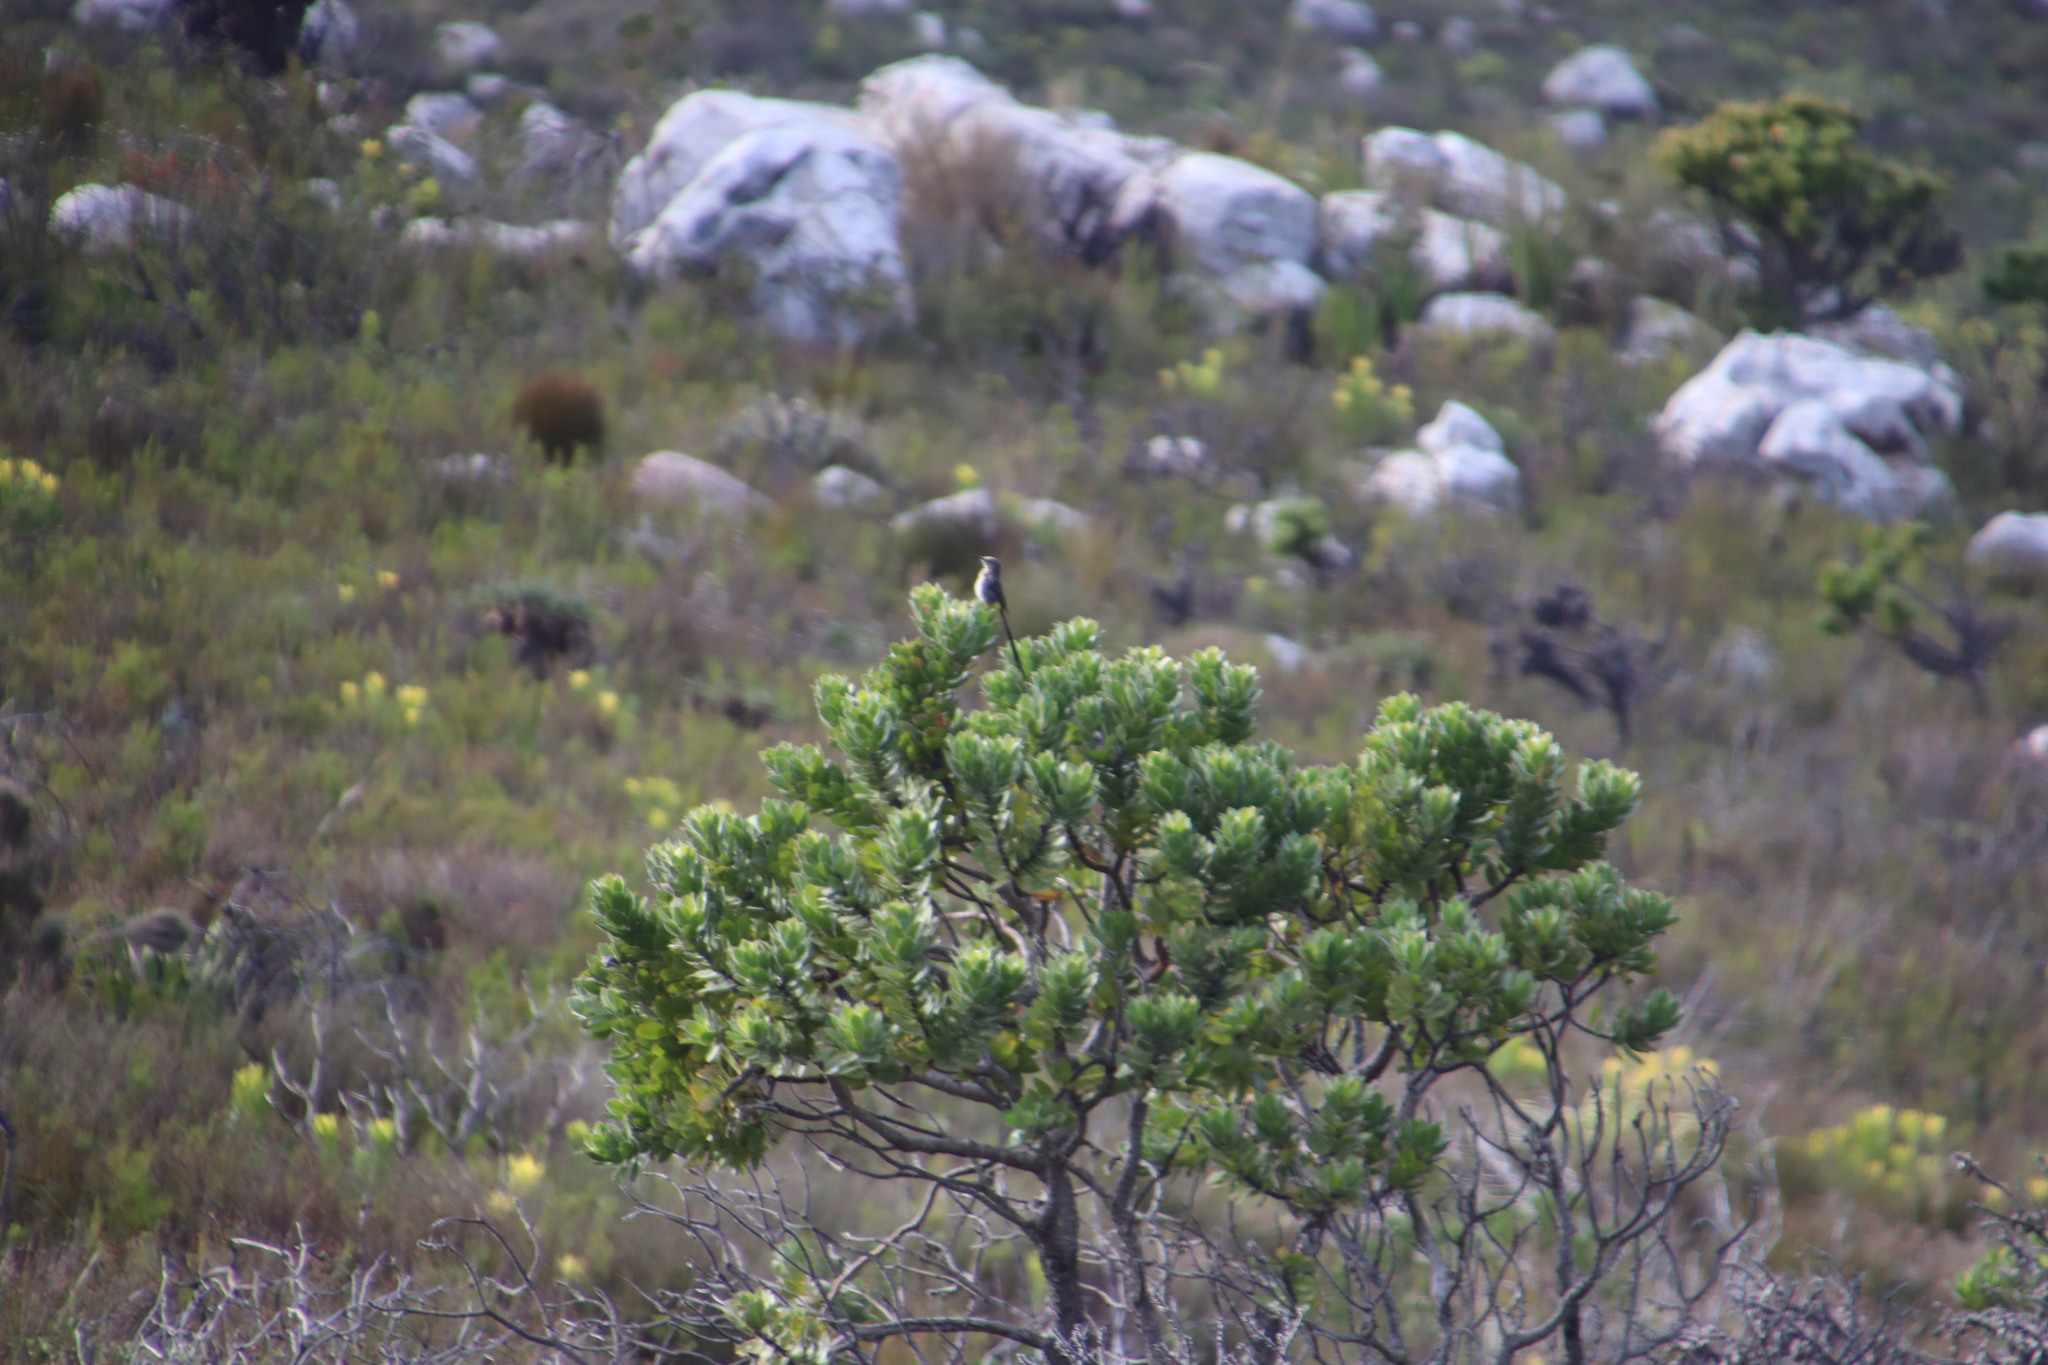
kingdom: Plantae
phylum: Tracheophyta
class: Magnoliopsida
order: Proteales
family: Proteaceae
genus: Leucospermum
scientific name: Leucospermum conocarpodendron
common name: Tree pincushion
